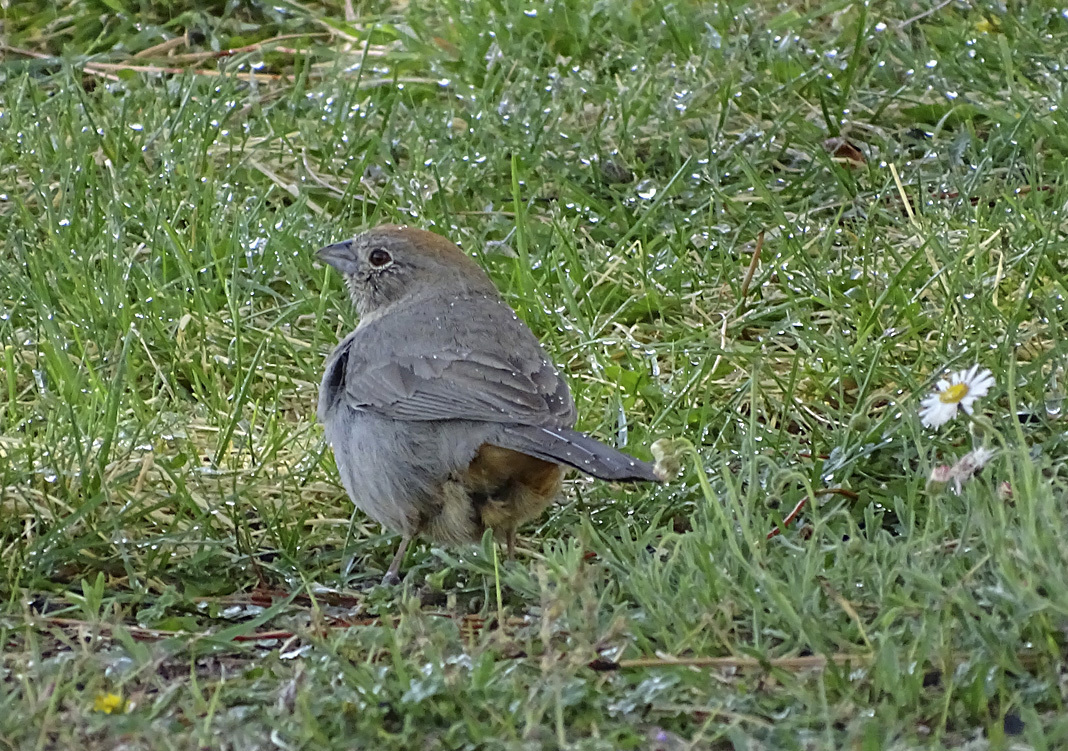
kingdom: Animalia
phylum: Chordata
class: Aves
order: Passeriformes
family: Passerellidae
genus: Melozone
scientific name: Melozone fusca
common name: Canyon towhee
